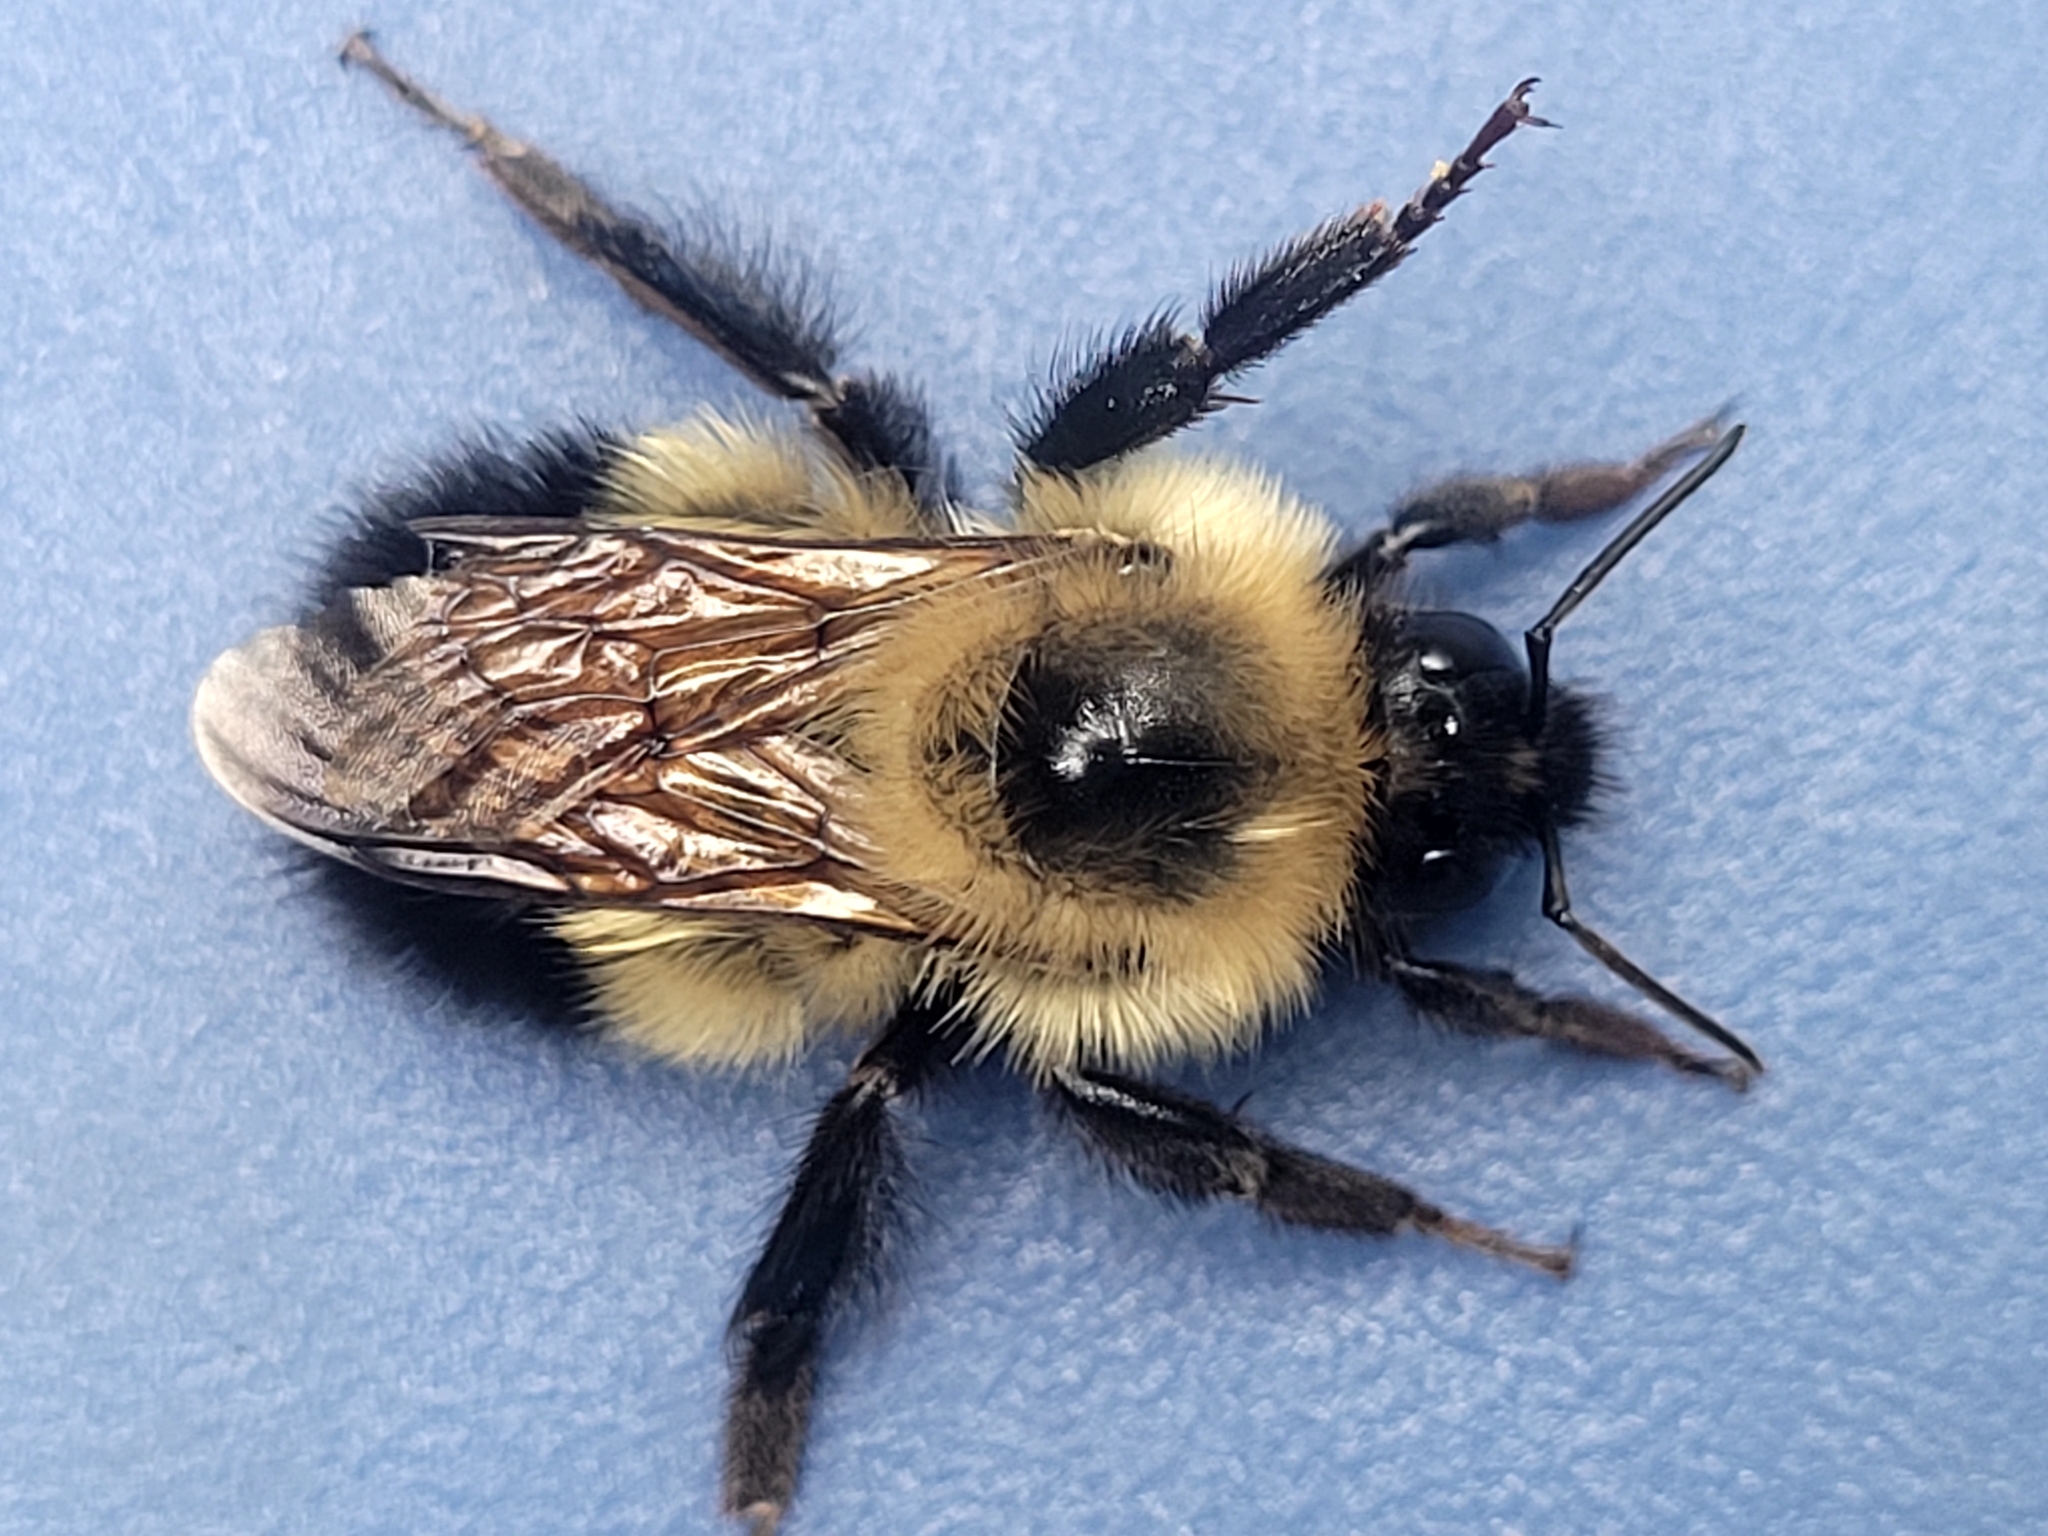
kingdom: Animalia
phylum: Arthropoda
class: Insecta
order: Hymenoptera
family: Apidae
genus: Bombus
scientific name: Bombus vagans
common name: Half-black bumble bee
